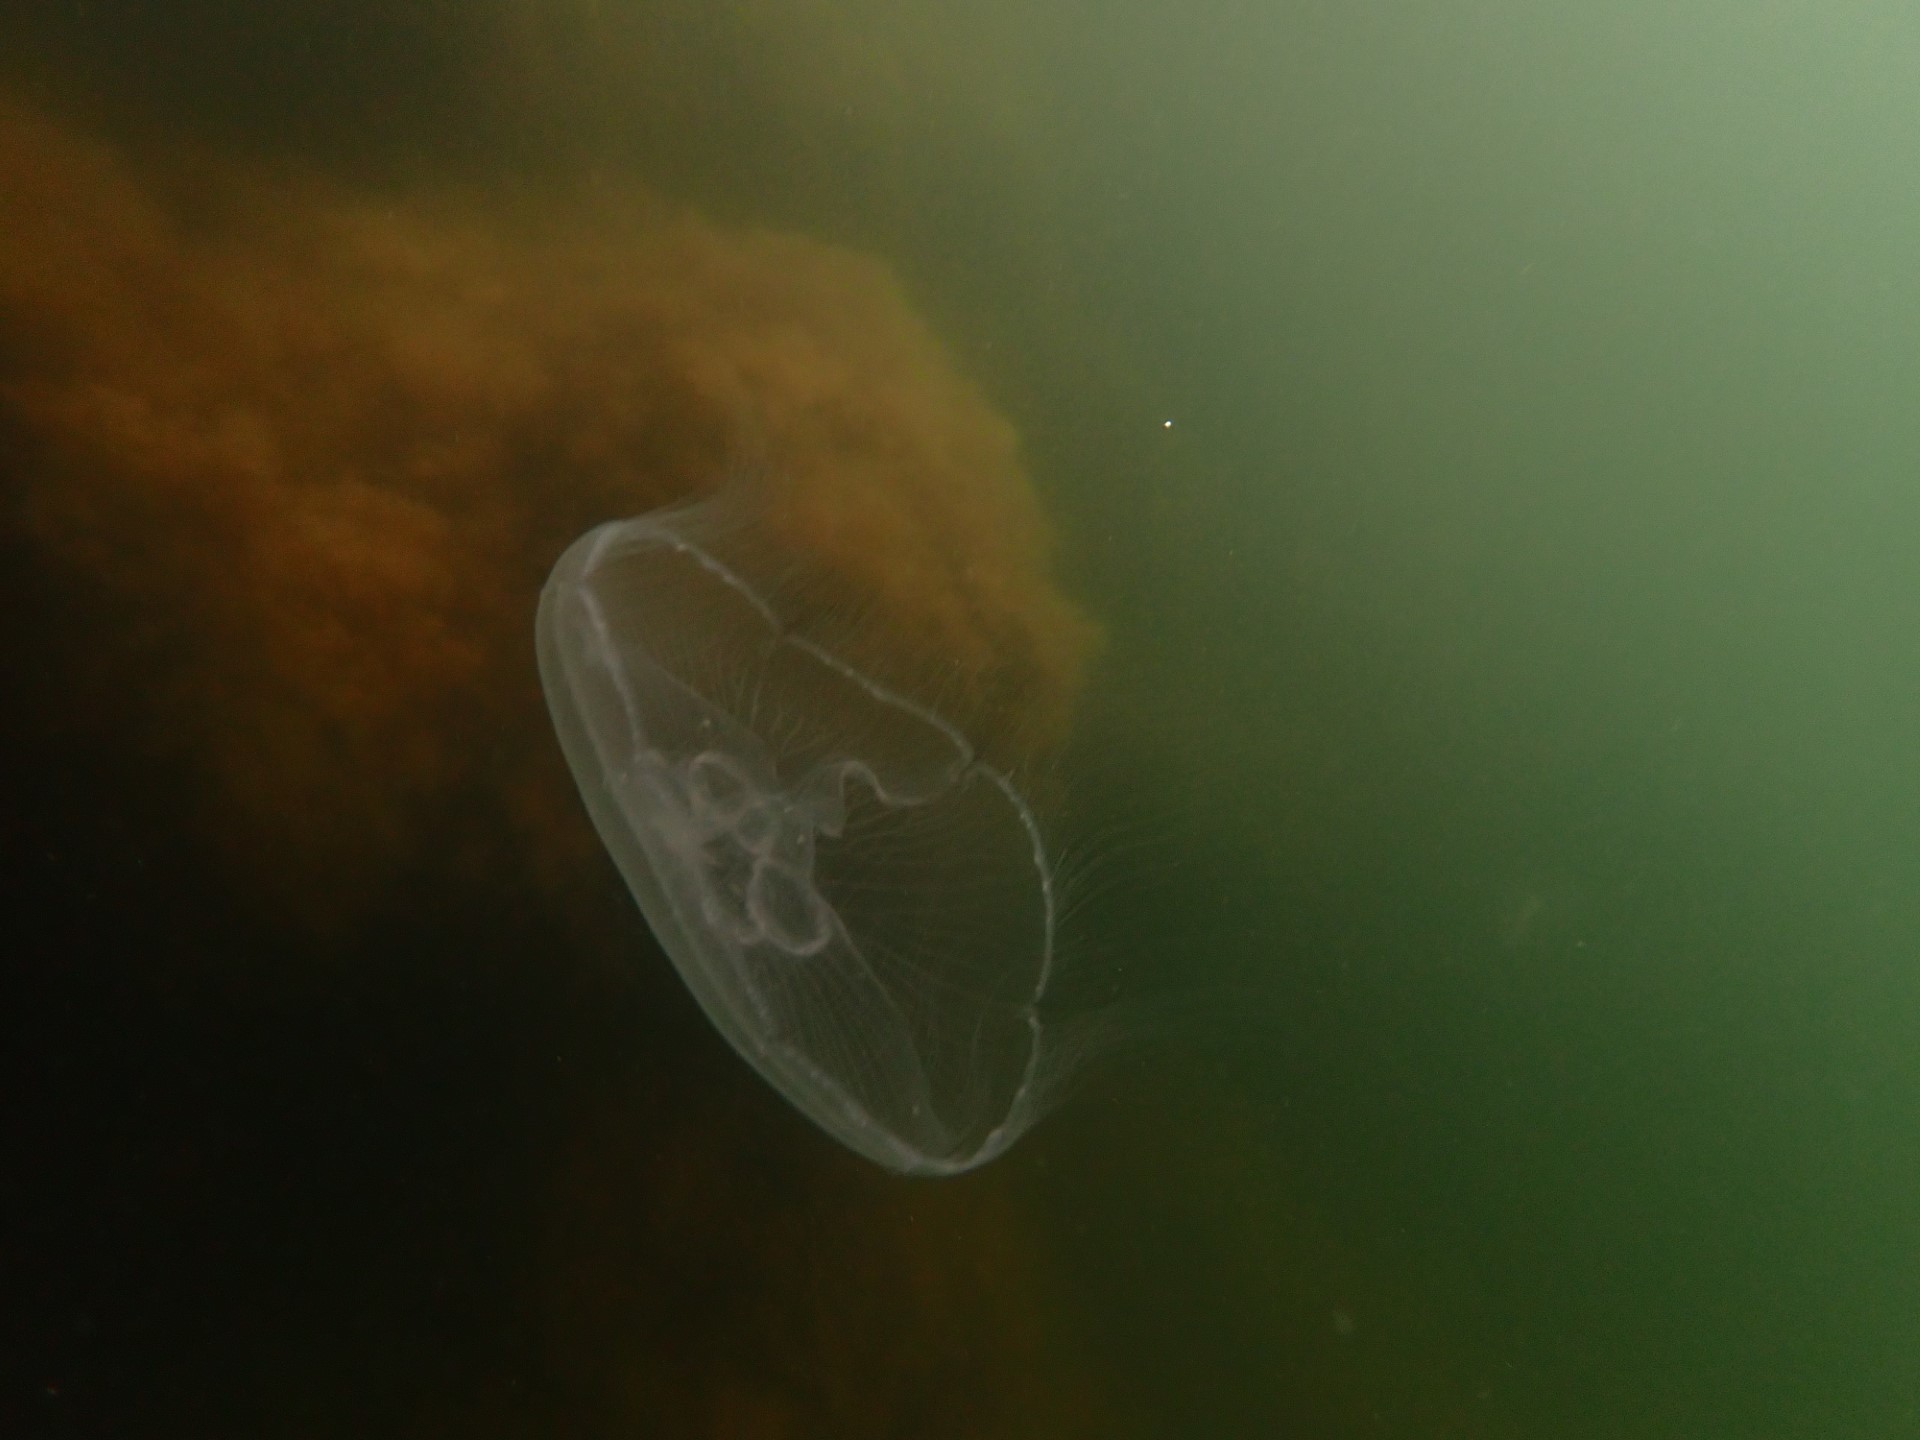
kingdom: Animalia
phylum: Cnidaria
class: Scyphozoa
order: Semaeostomeae
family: Ulmaridae
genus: Aurelia
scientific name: Aurelia aurita
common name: Moon jellyfish
